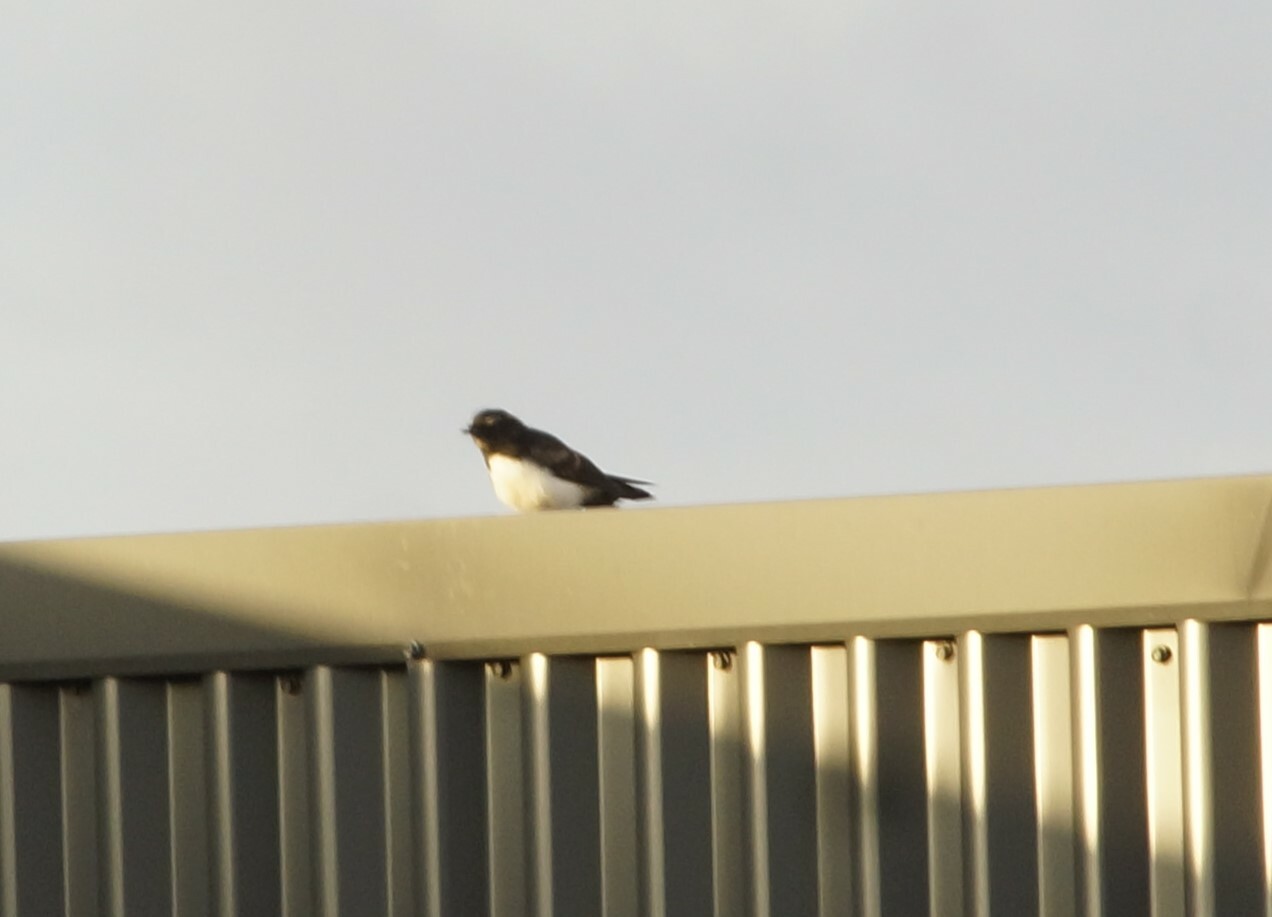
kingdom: Animalia
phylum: Chordata
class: Aves
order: Passeriformes
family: Rhipiduridae
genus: Rhipidura
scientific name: Rhipidura leucophrys
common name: Willie wagtail
